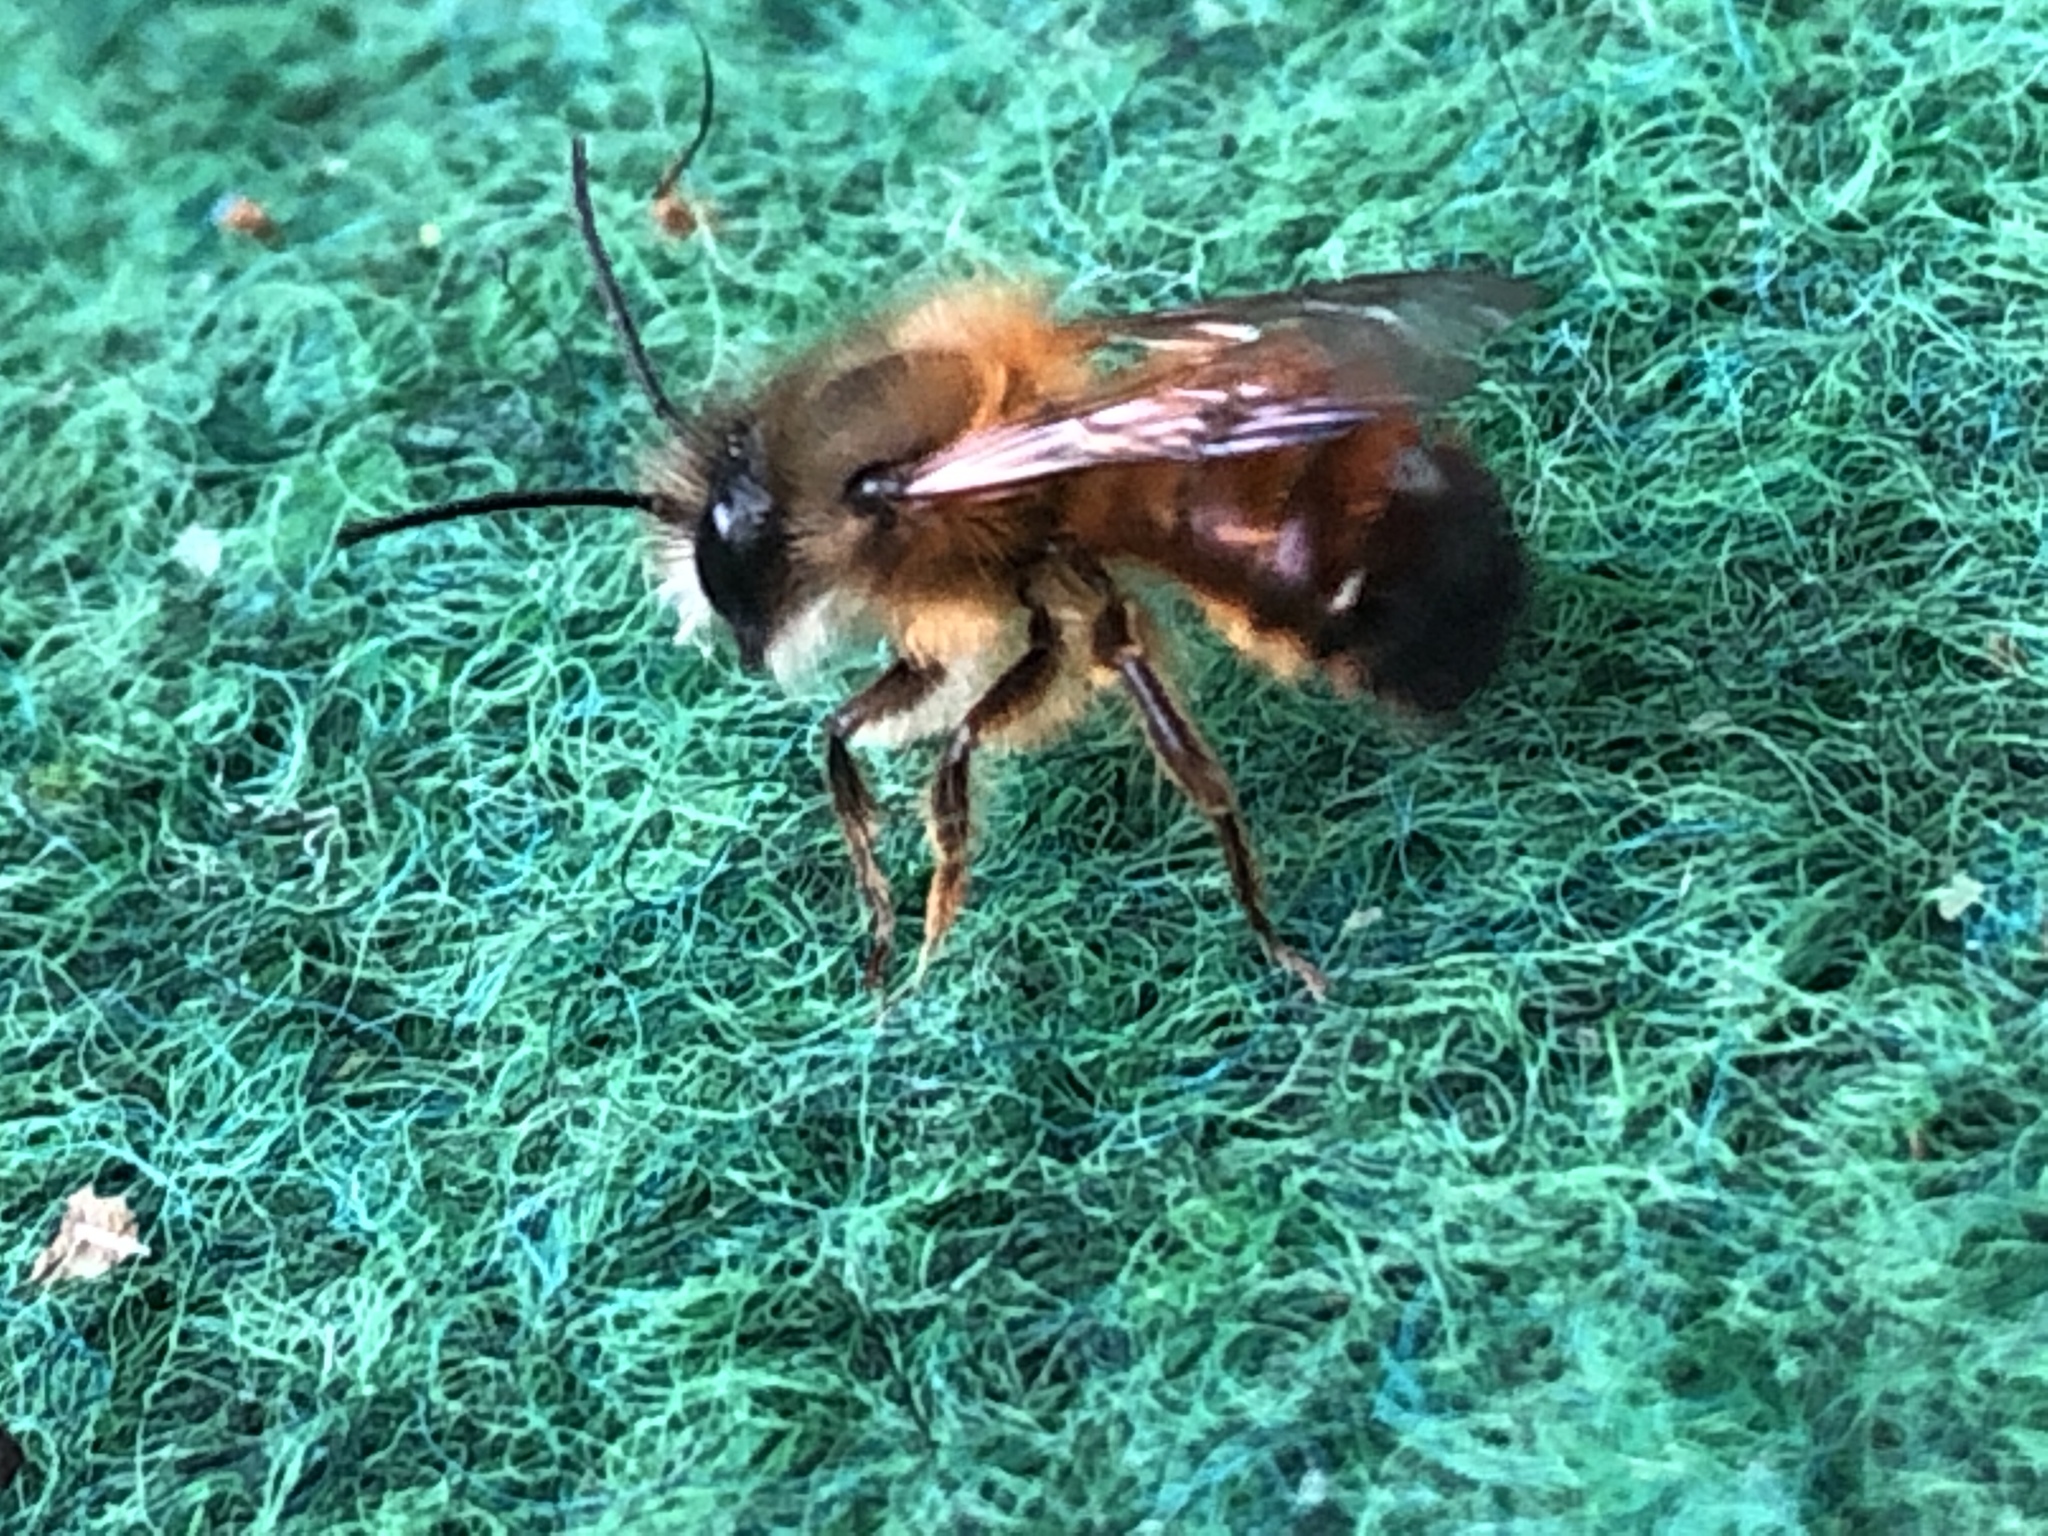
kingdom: Animalia
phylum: Arthropoda
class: Insecta
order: Hymenoptera
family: Megachilidae
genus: Osmia
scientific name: Osmia bicornis
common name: Red mason bee
